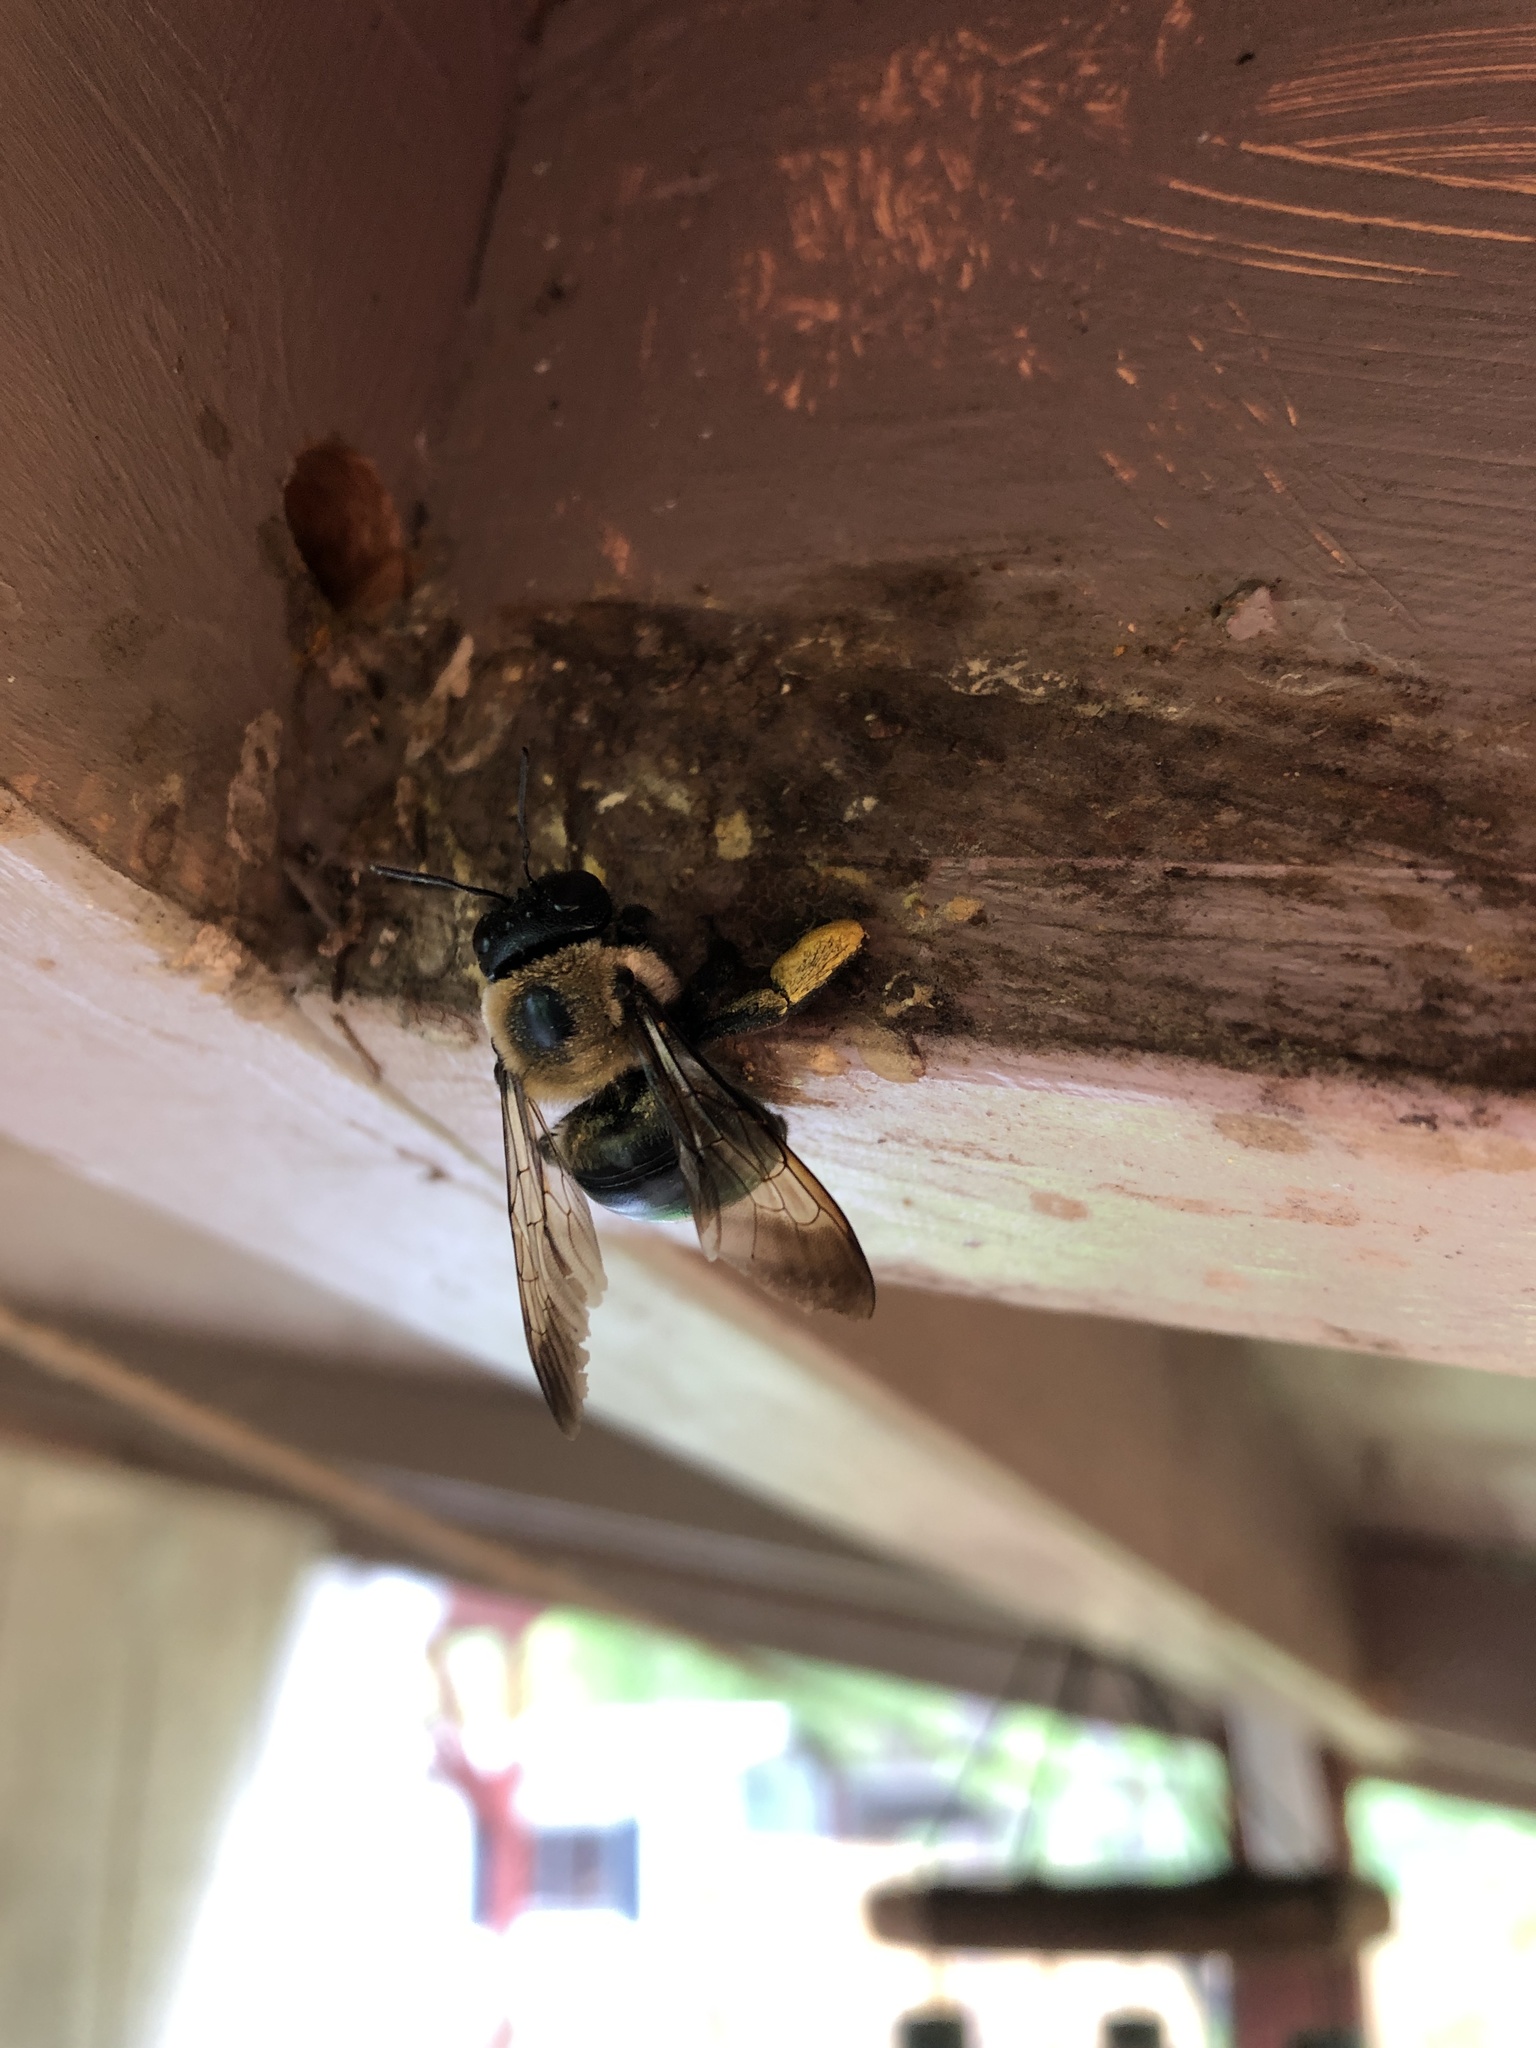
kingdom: Animalia
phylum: Arthropoda
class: Insecta
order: Hymenoptera
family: Apidae
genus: Xylocopa
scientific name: Xylocopa virginica
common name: Carpenter bee
